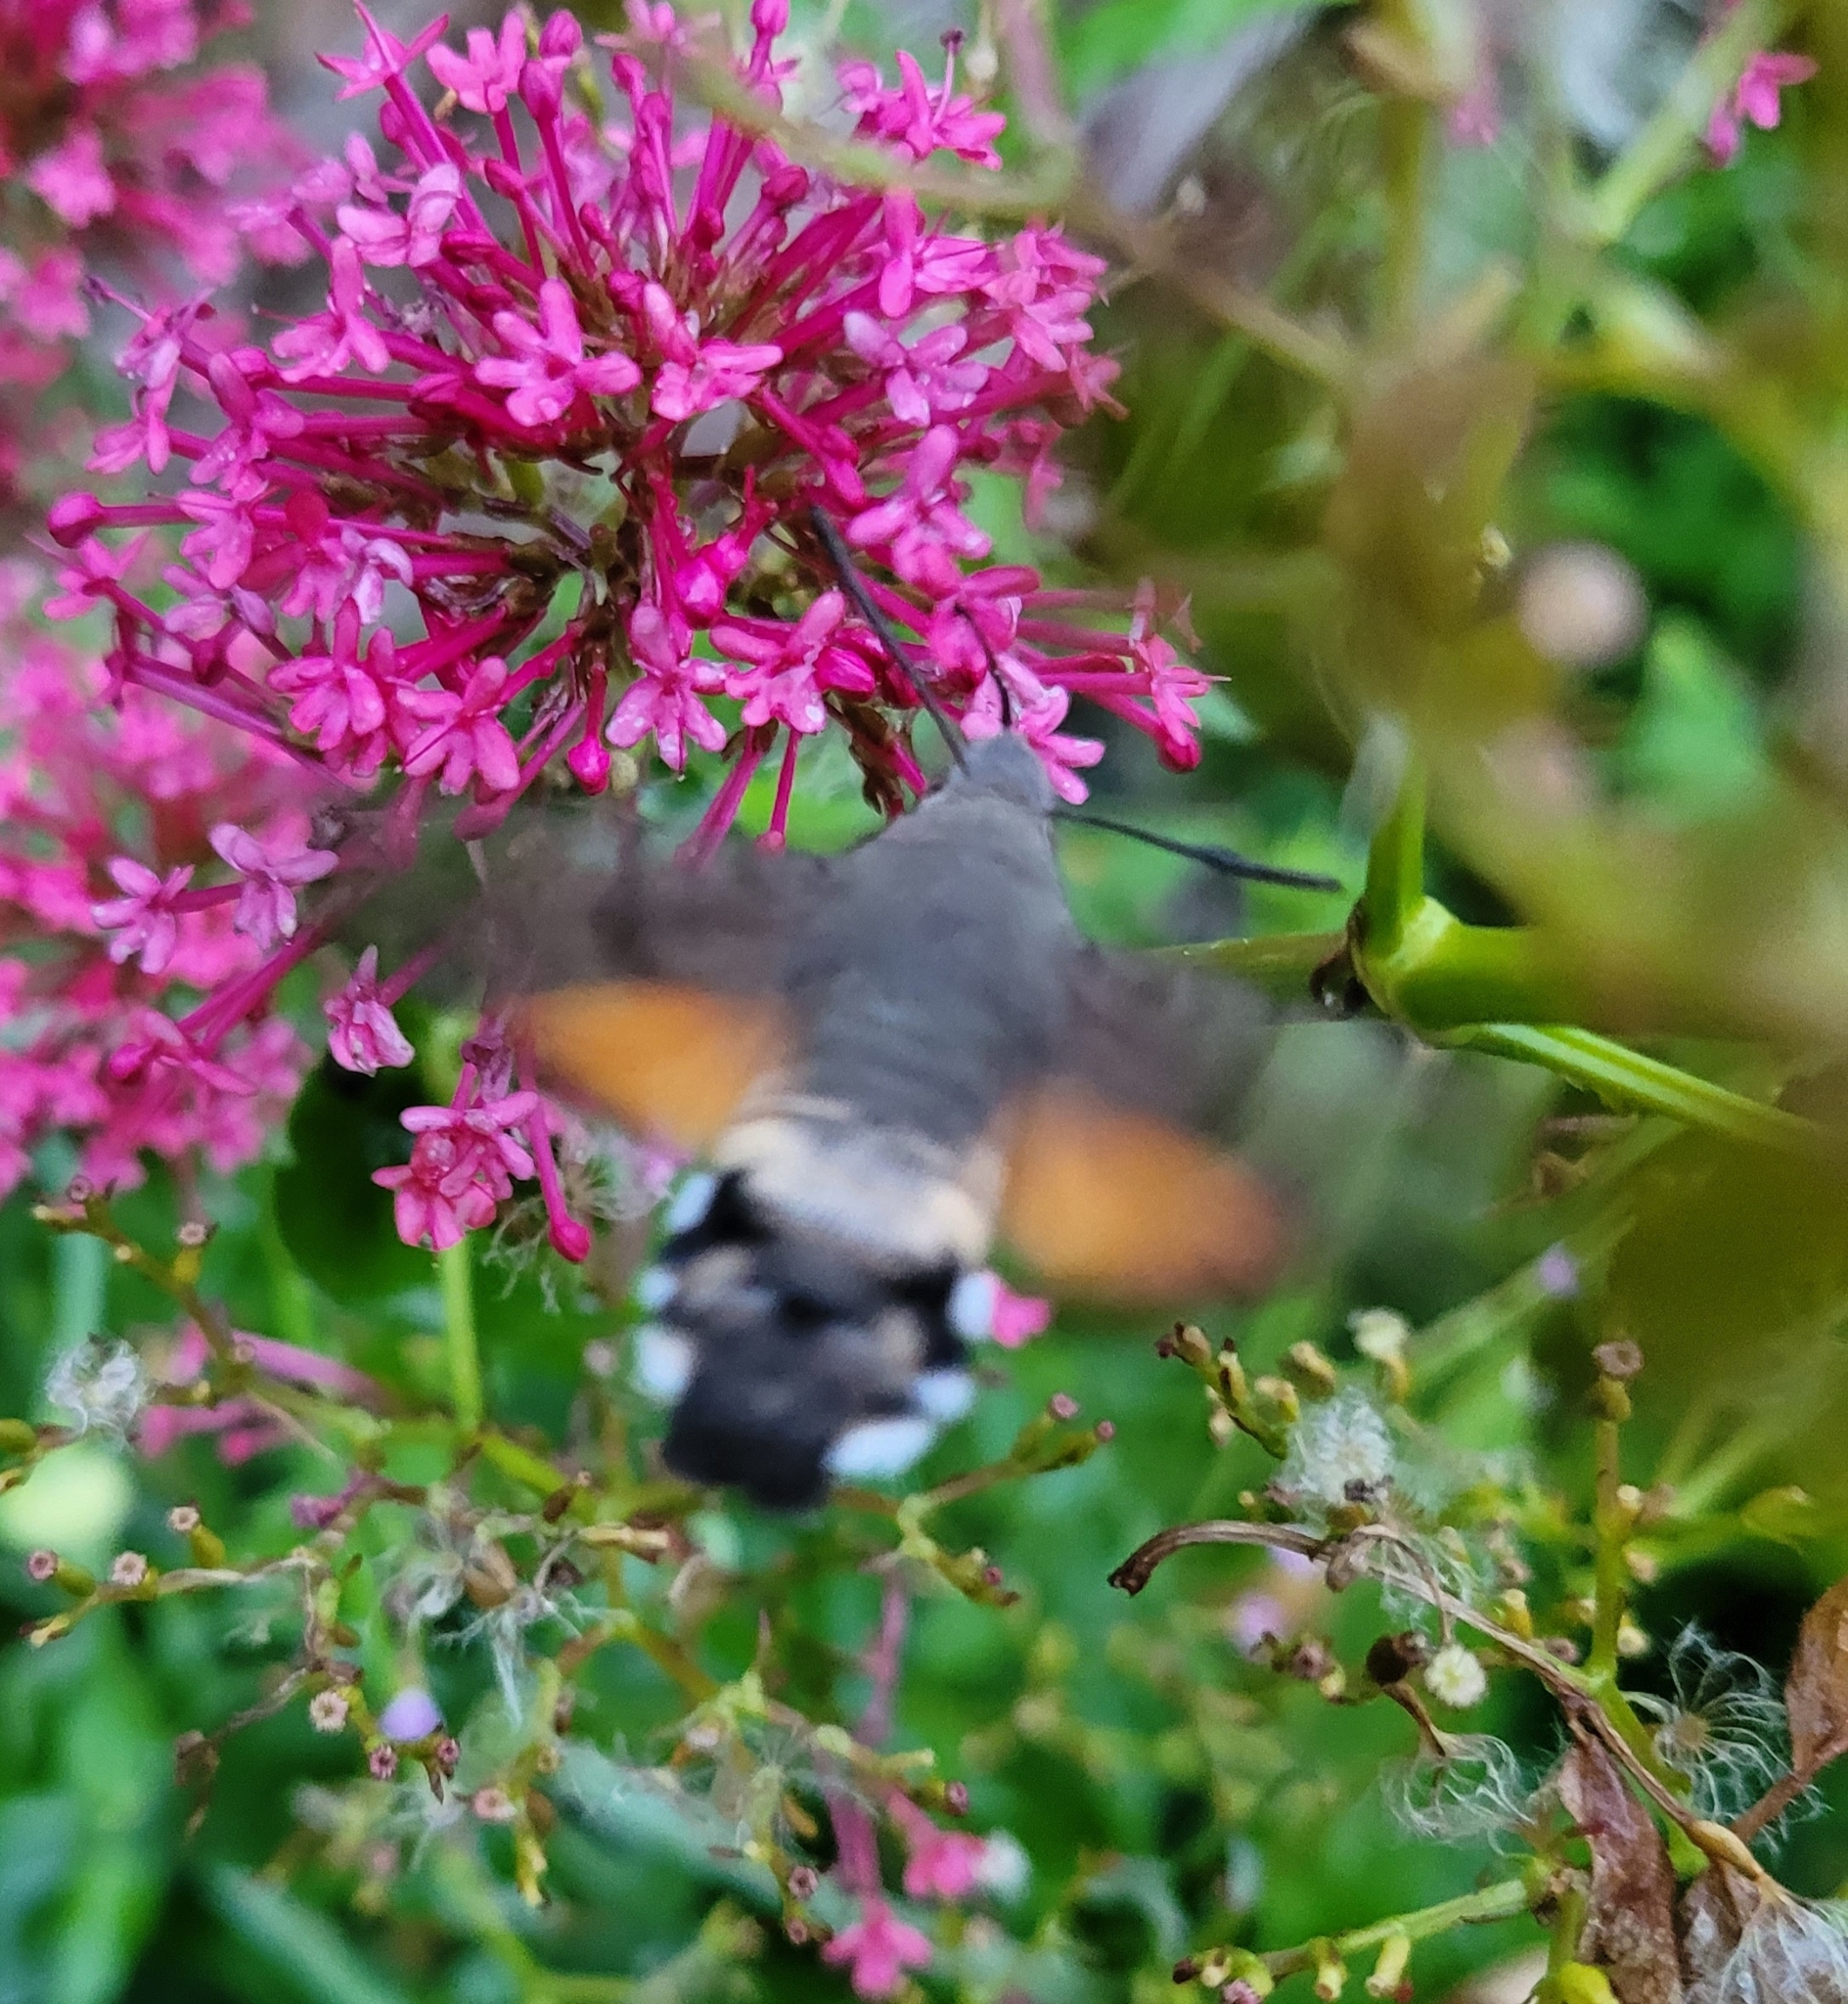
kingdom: Animalia
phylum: Arthropoda
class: Insecta
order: Lepidoptera
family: Sphingidae
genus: Macroglossum
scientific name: Macroglossum stellatarum
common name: Humming-bird hawk-moth
